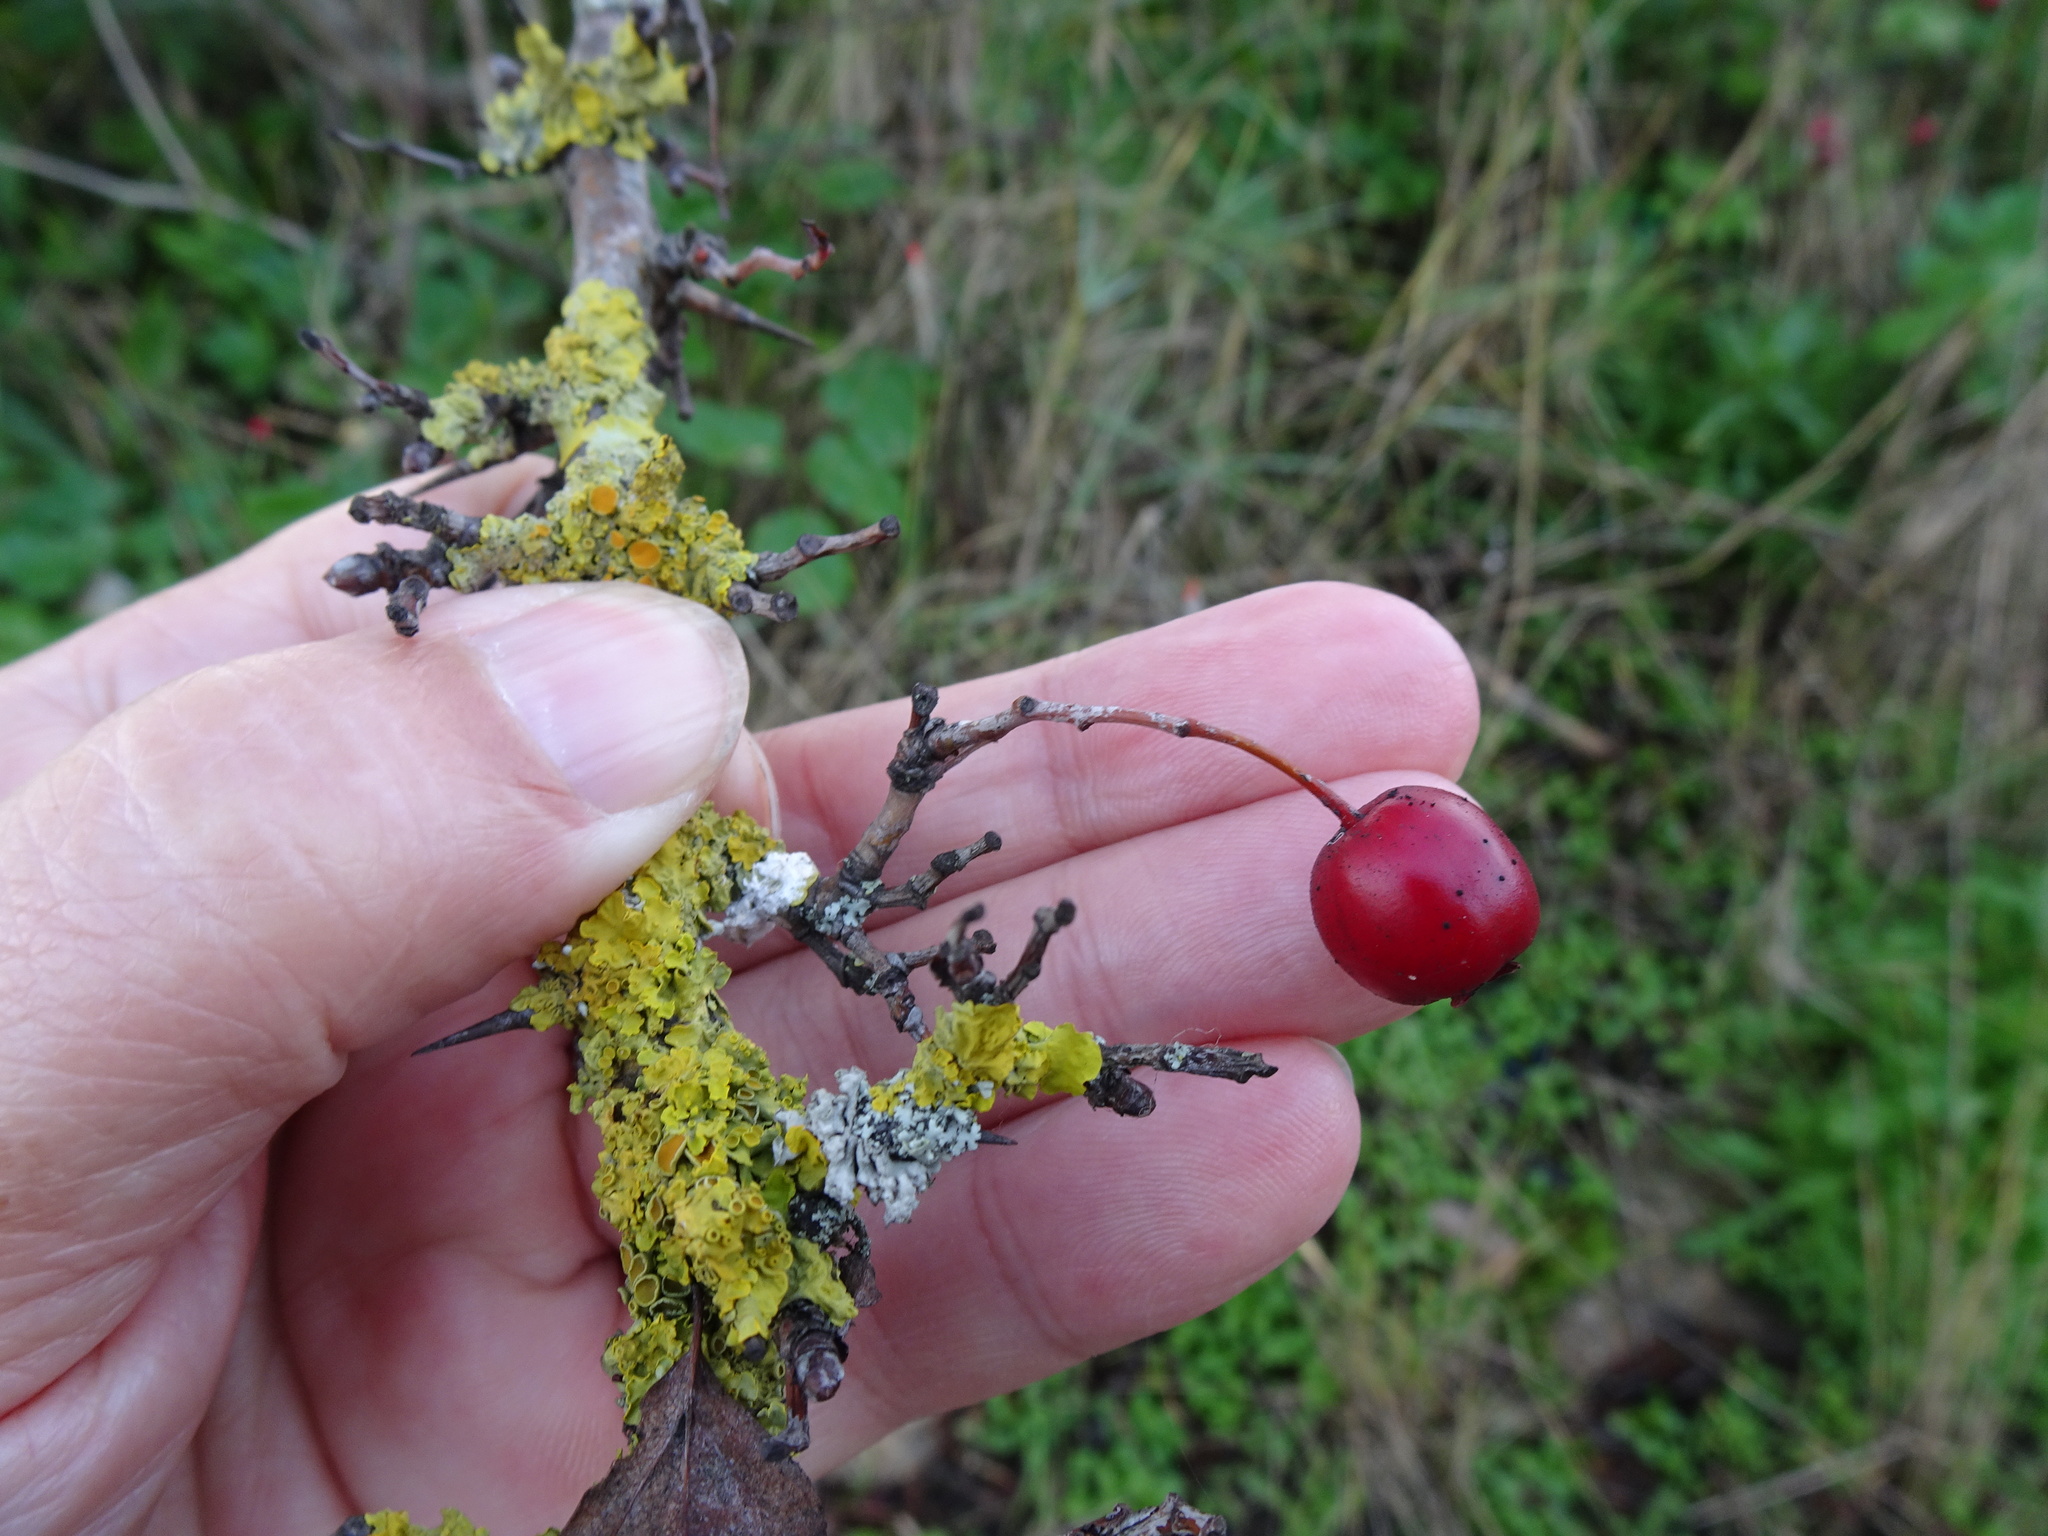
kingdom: Fungi
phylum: Ascomycota
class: Lecanoromycetes
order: Teloschistales
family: Teloschistaceae
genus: Xanthoria
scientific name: Xanthoria parietina
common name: Common orange lichen
